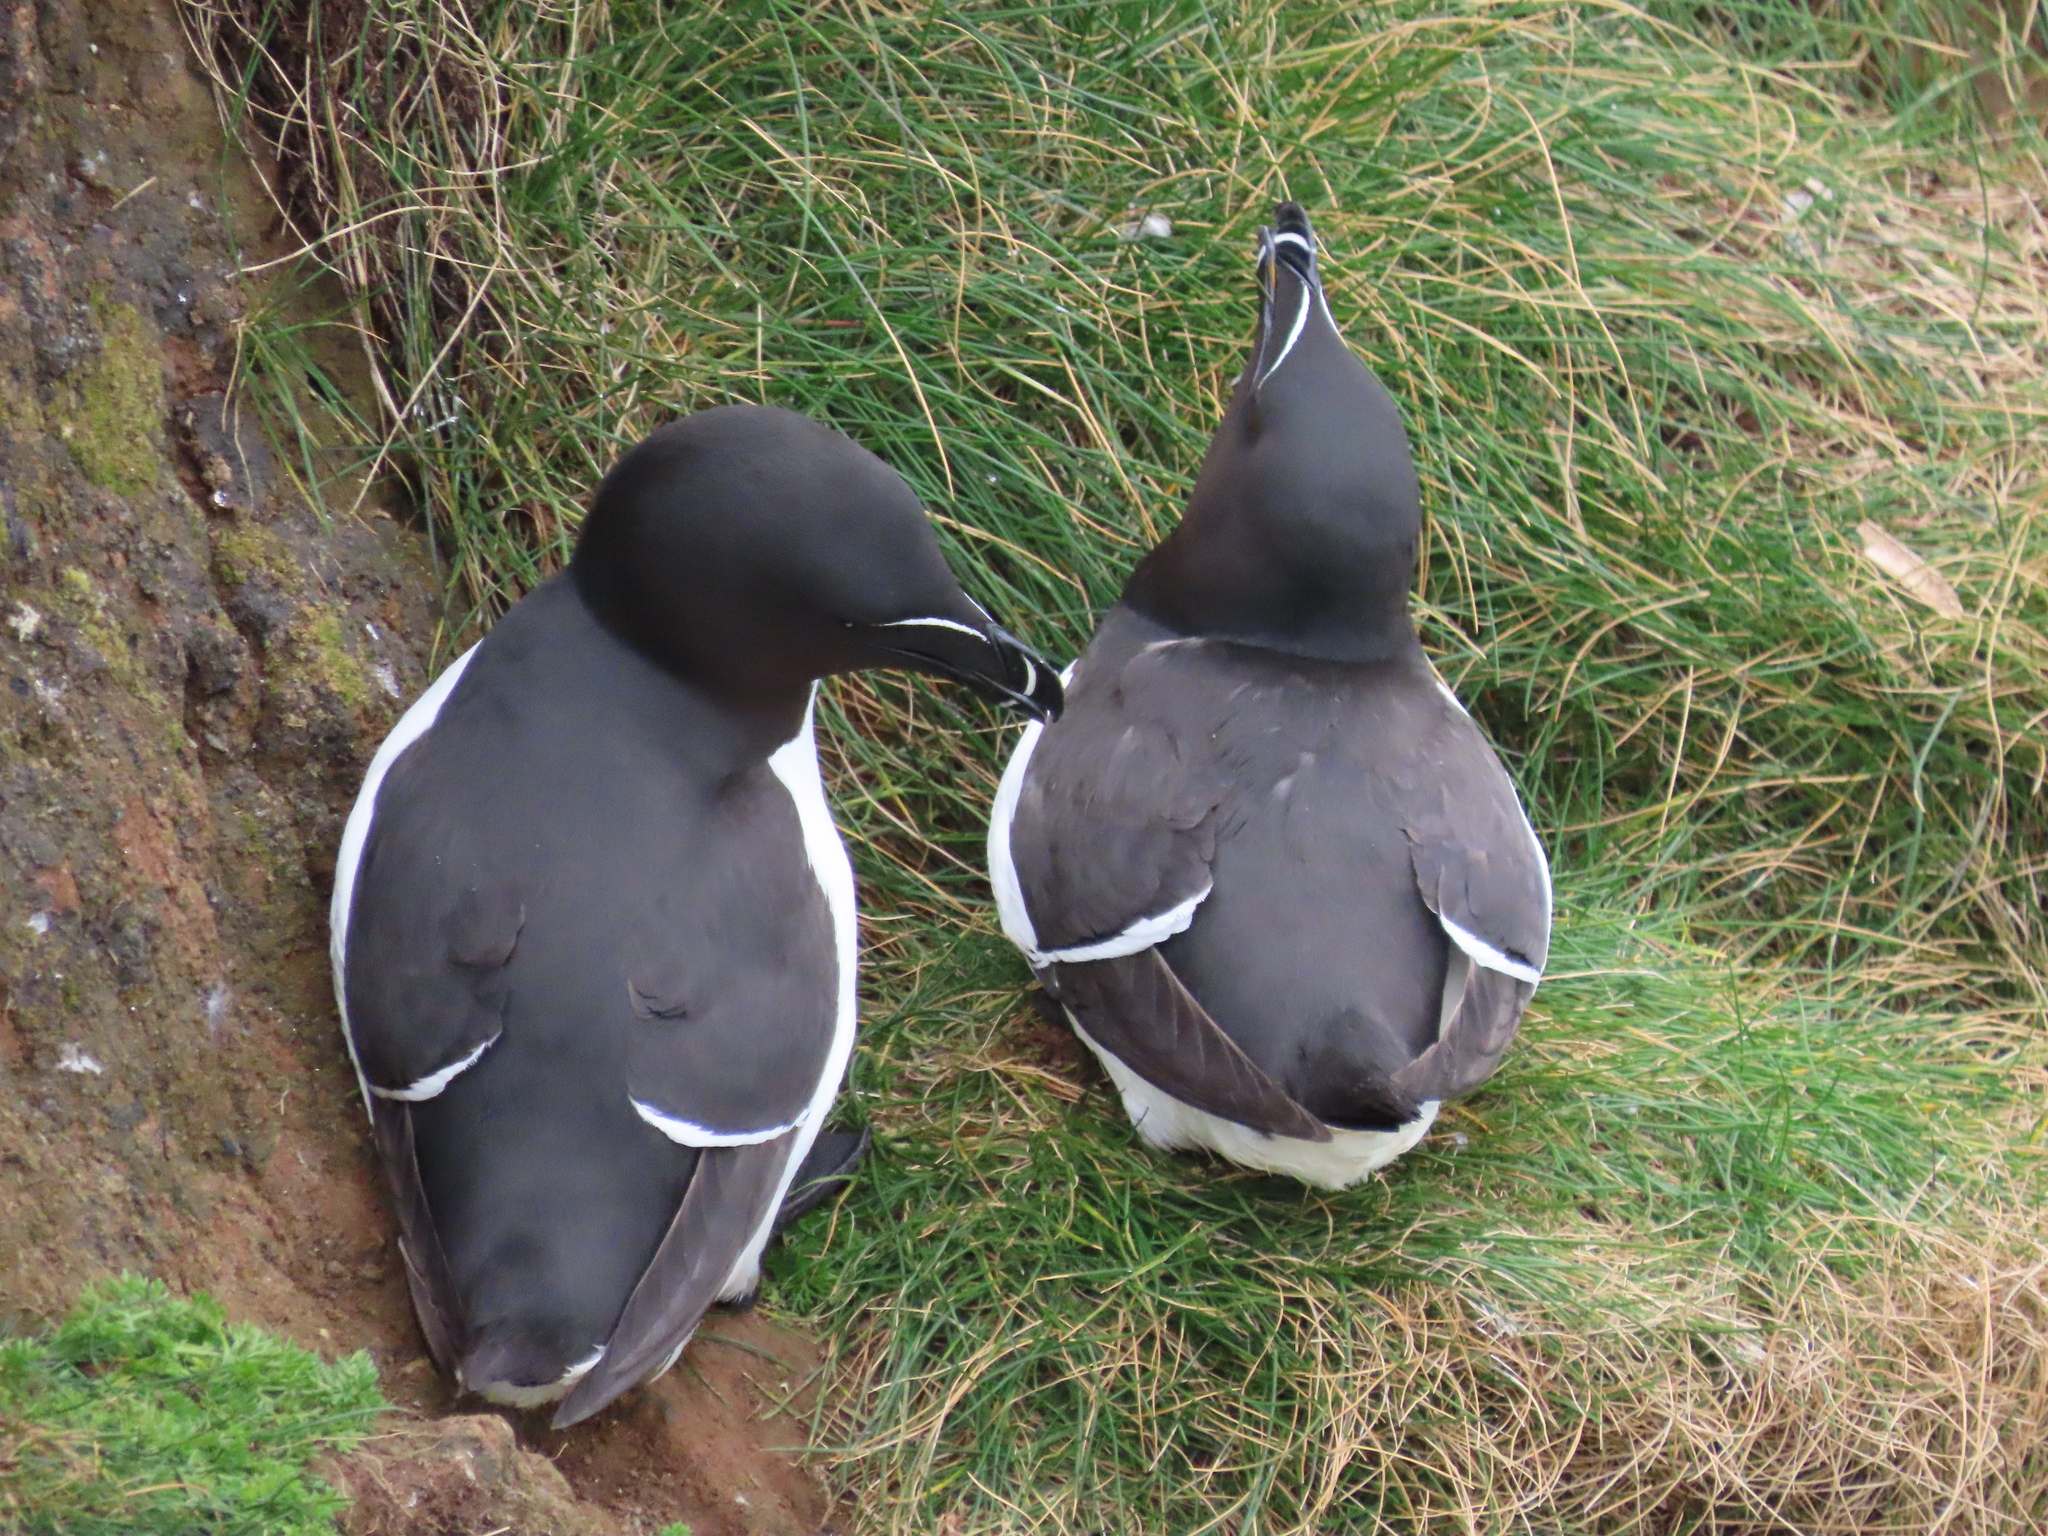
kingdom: Animalia
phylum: Chordata
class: Aves
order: Charadriiformes
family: Alcidae
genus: Alca
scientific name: Alca torda
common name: Razorbill
